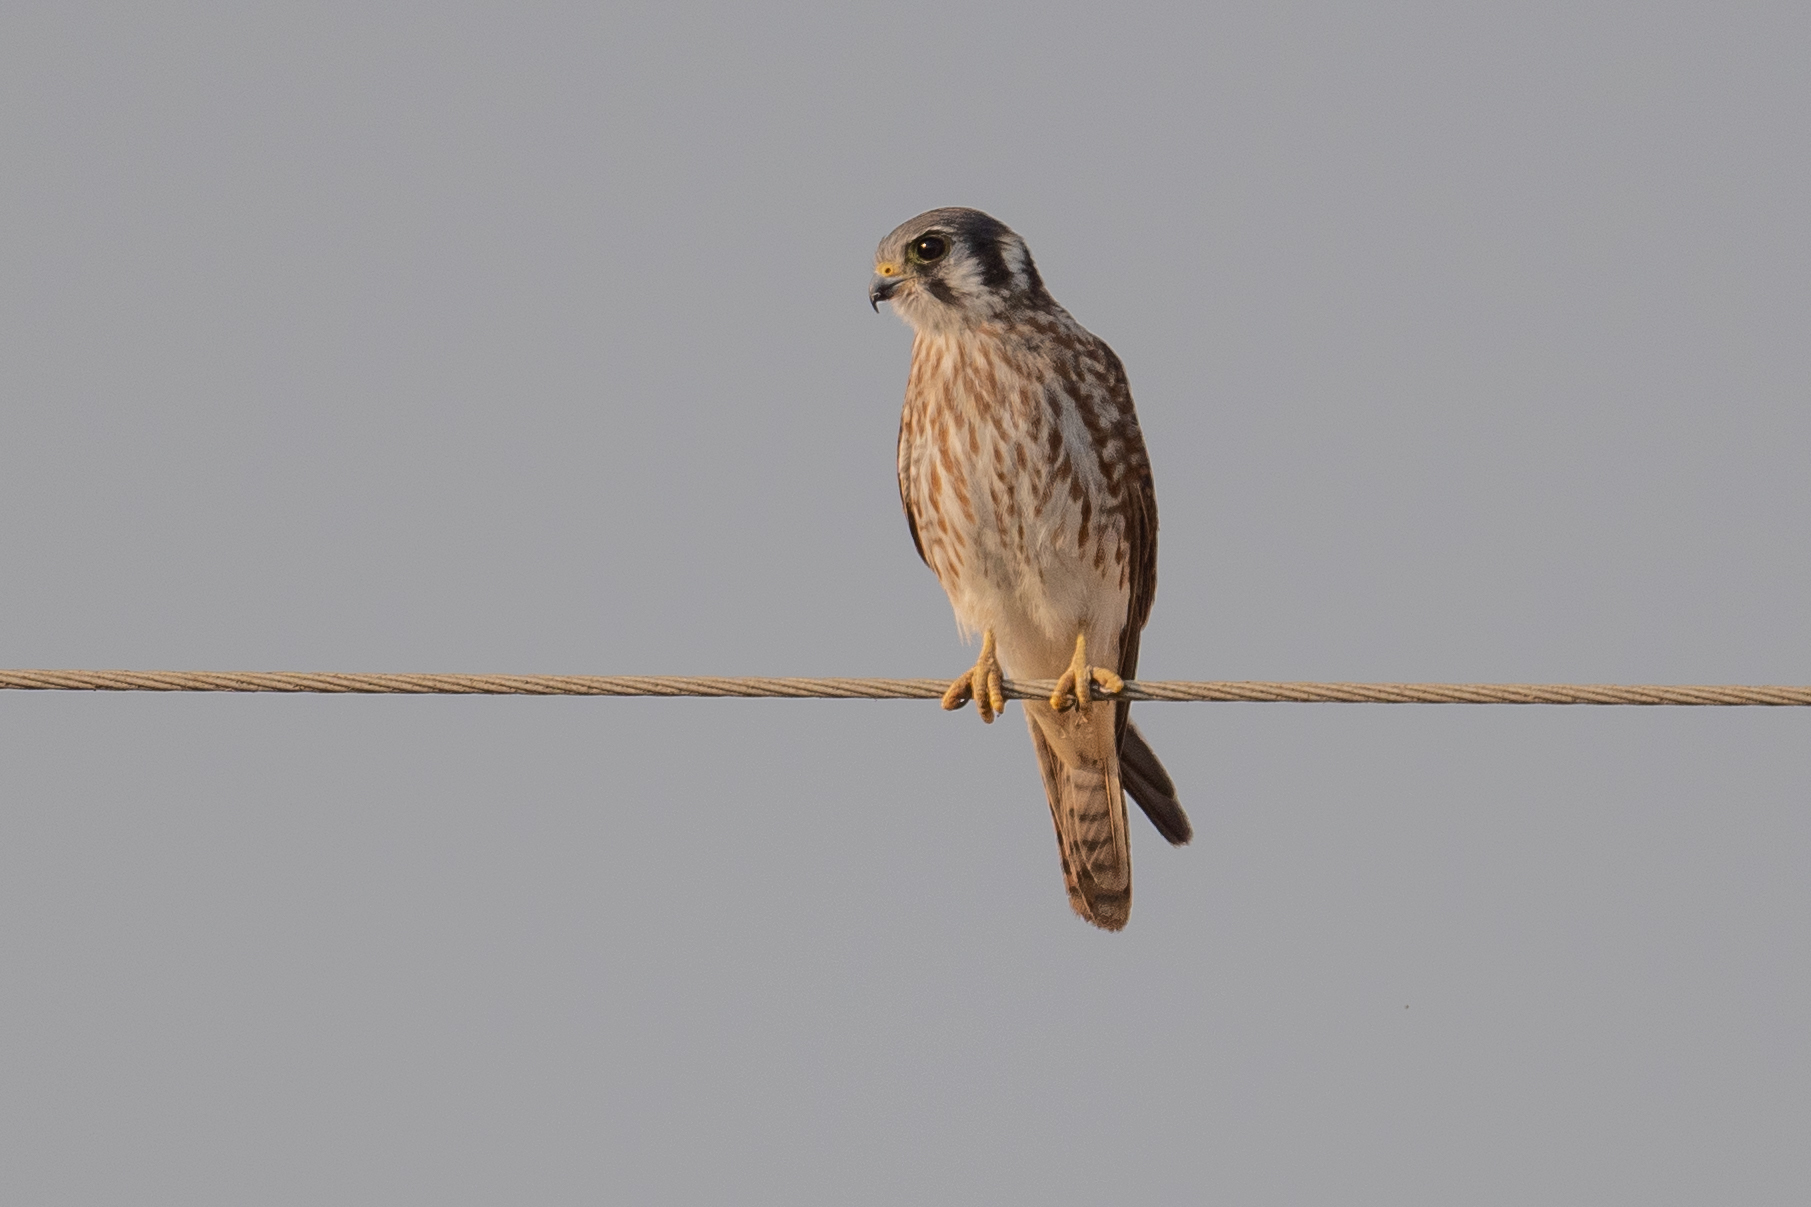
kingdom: Animalia
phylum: Chordata
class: Aves
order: Falconiformes
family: Falconidae
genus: Falco
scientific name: Falco sparverius
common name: American kestrel
